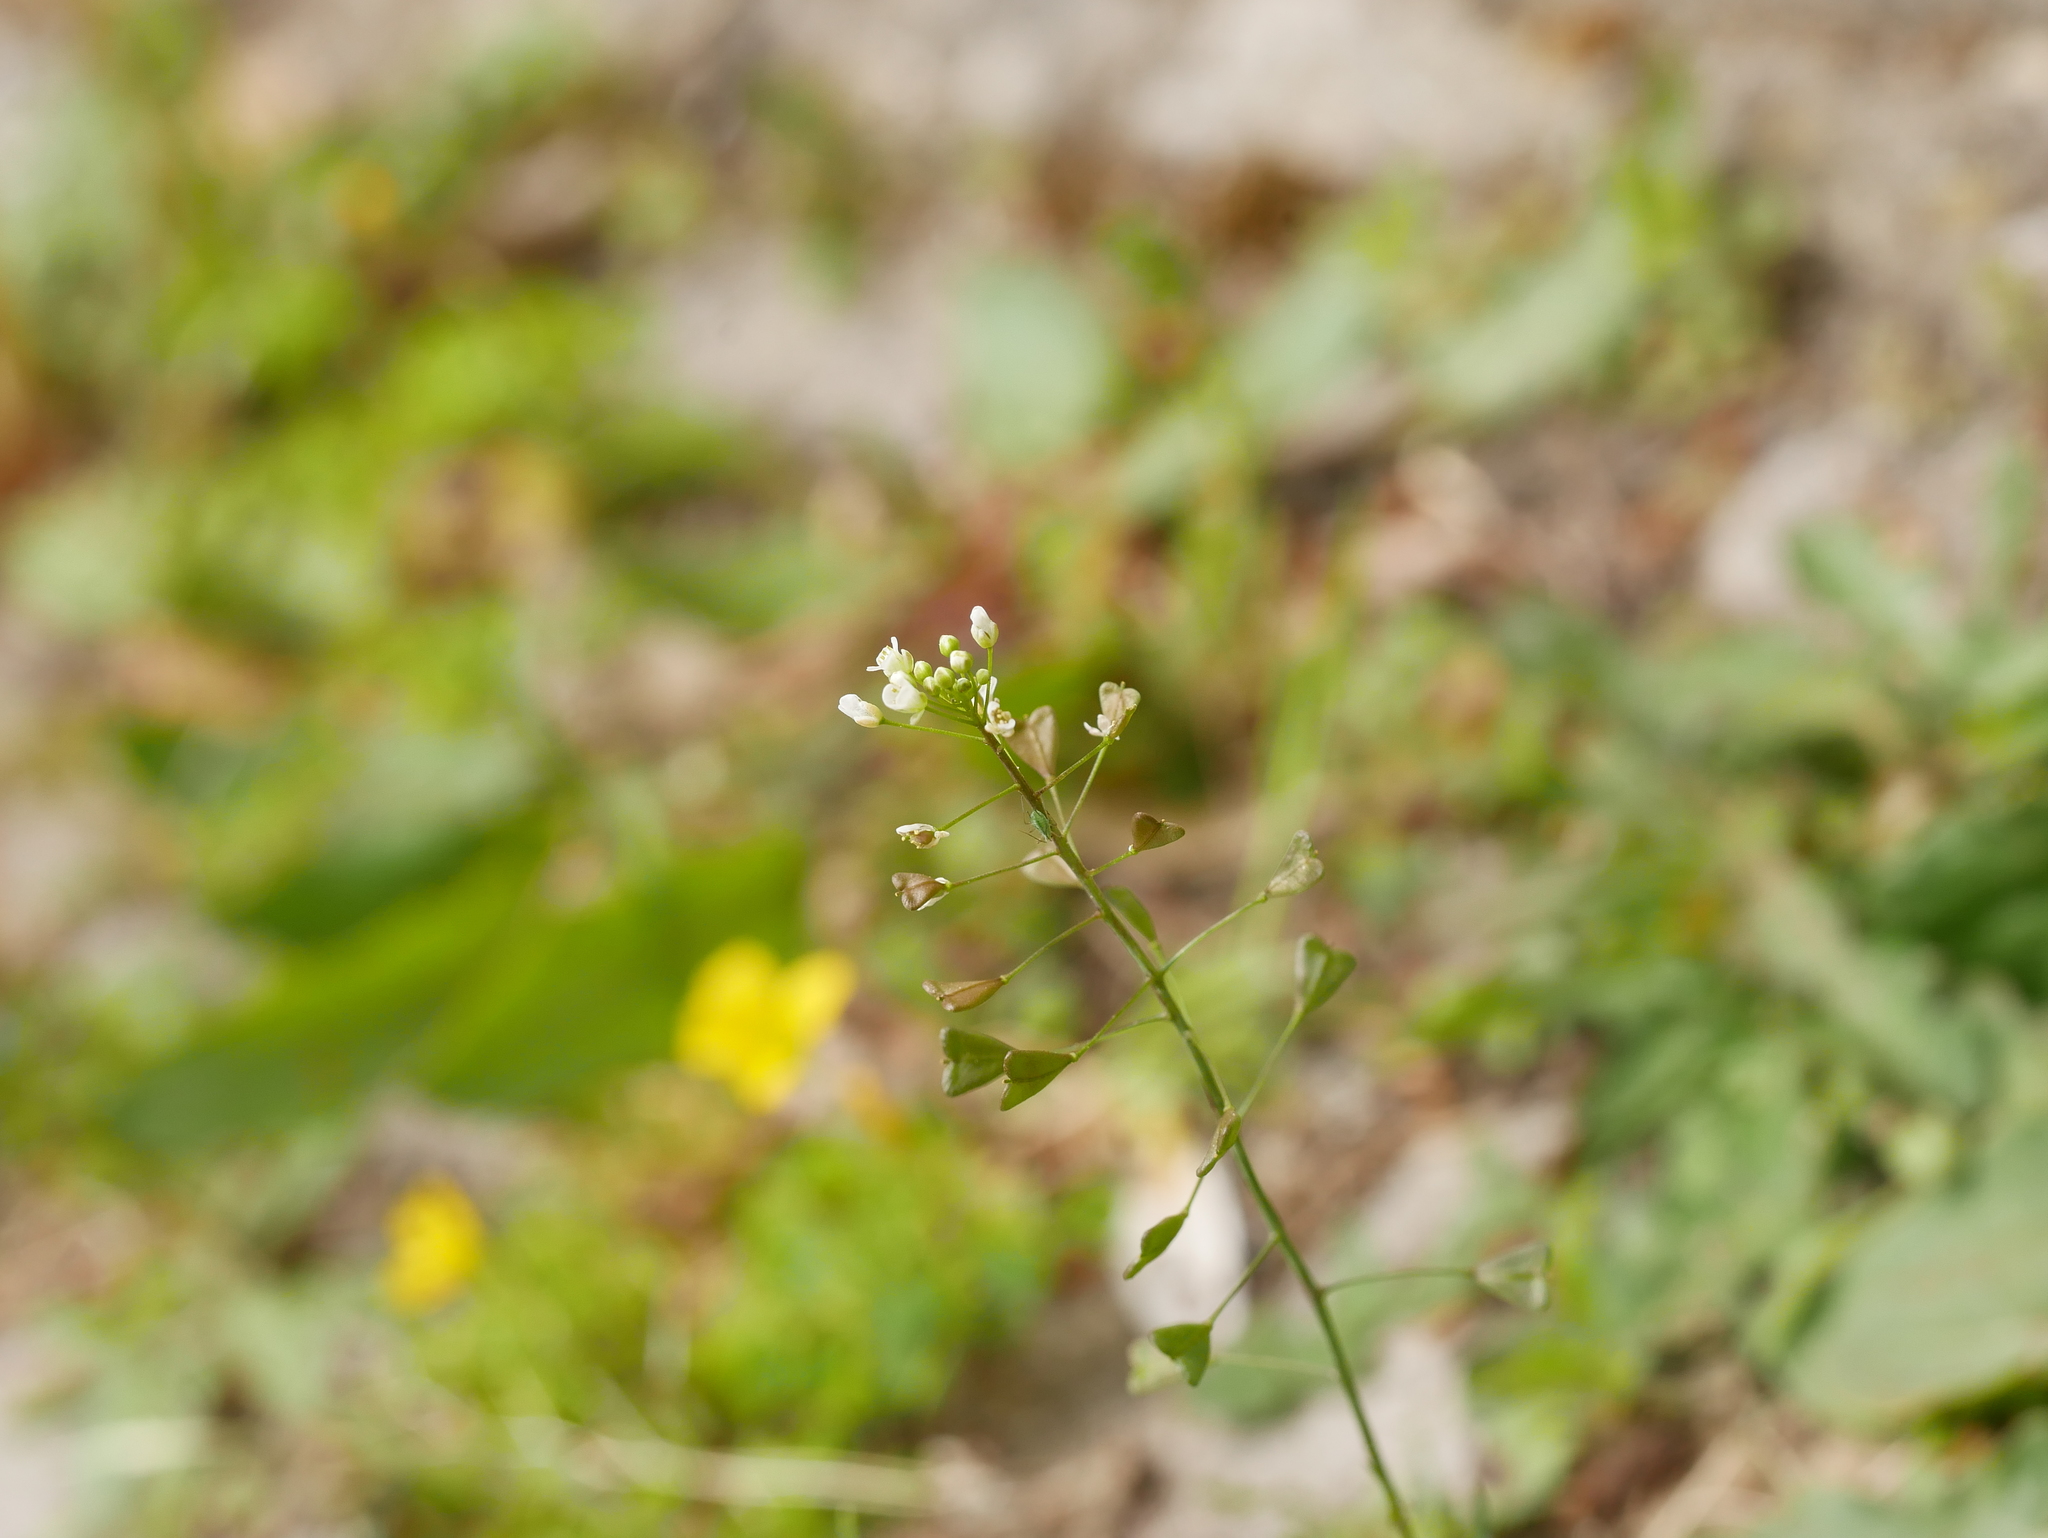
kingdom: Plantae
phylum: Tracheophyta
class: Magnoliopsida
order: Brassicales
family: Brassicaceae
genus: Capsella
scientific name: Capsella bursa-pastoris
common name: Shepherd's purse
